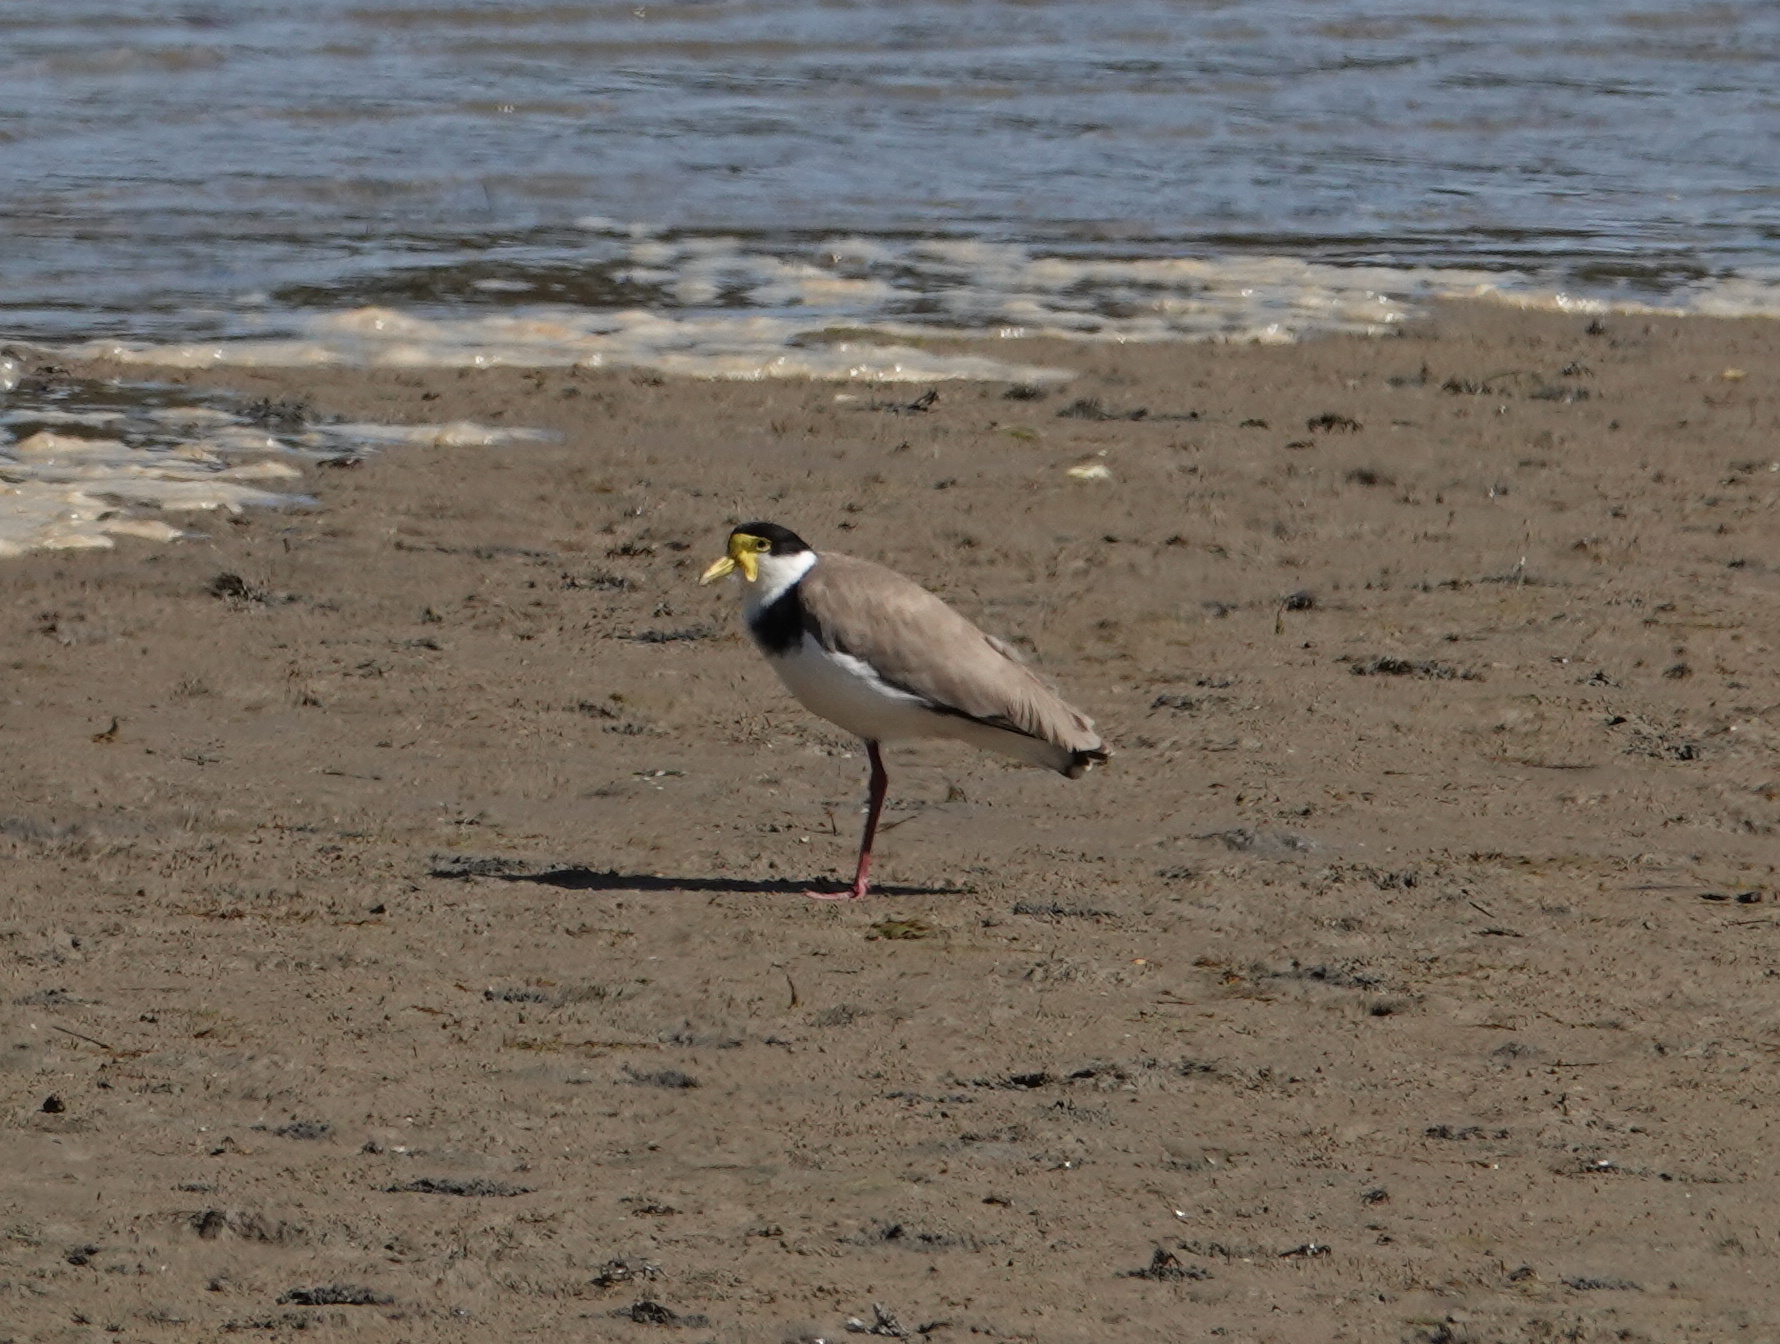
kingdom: Animalia
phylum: Chordata
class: Aves
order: Charadriiformes
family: Charadriidae
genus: Vanellus
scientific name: Vanellus miles
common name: Masked lapwing
